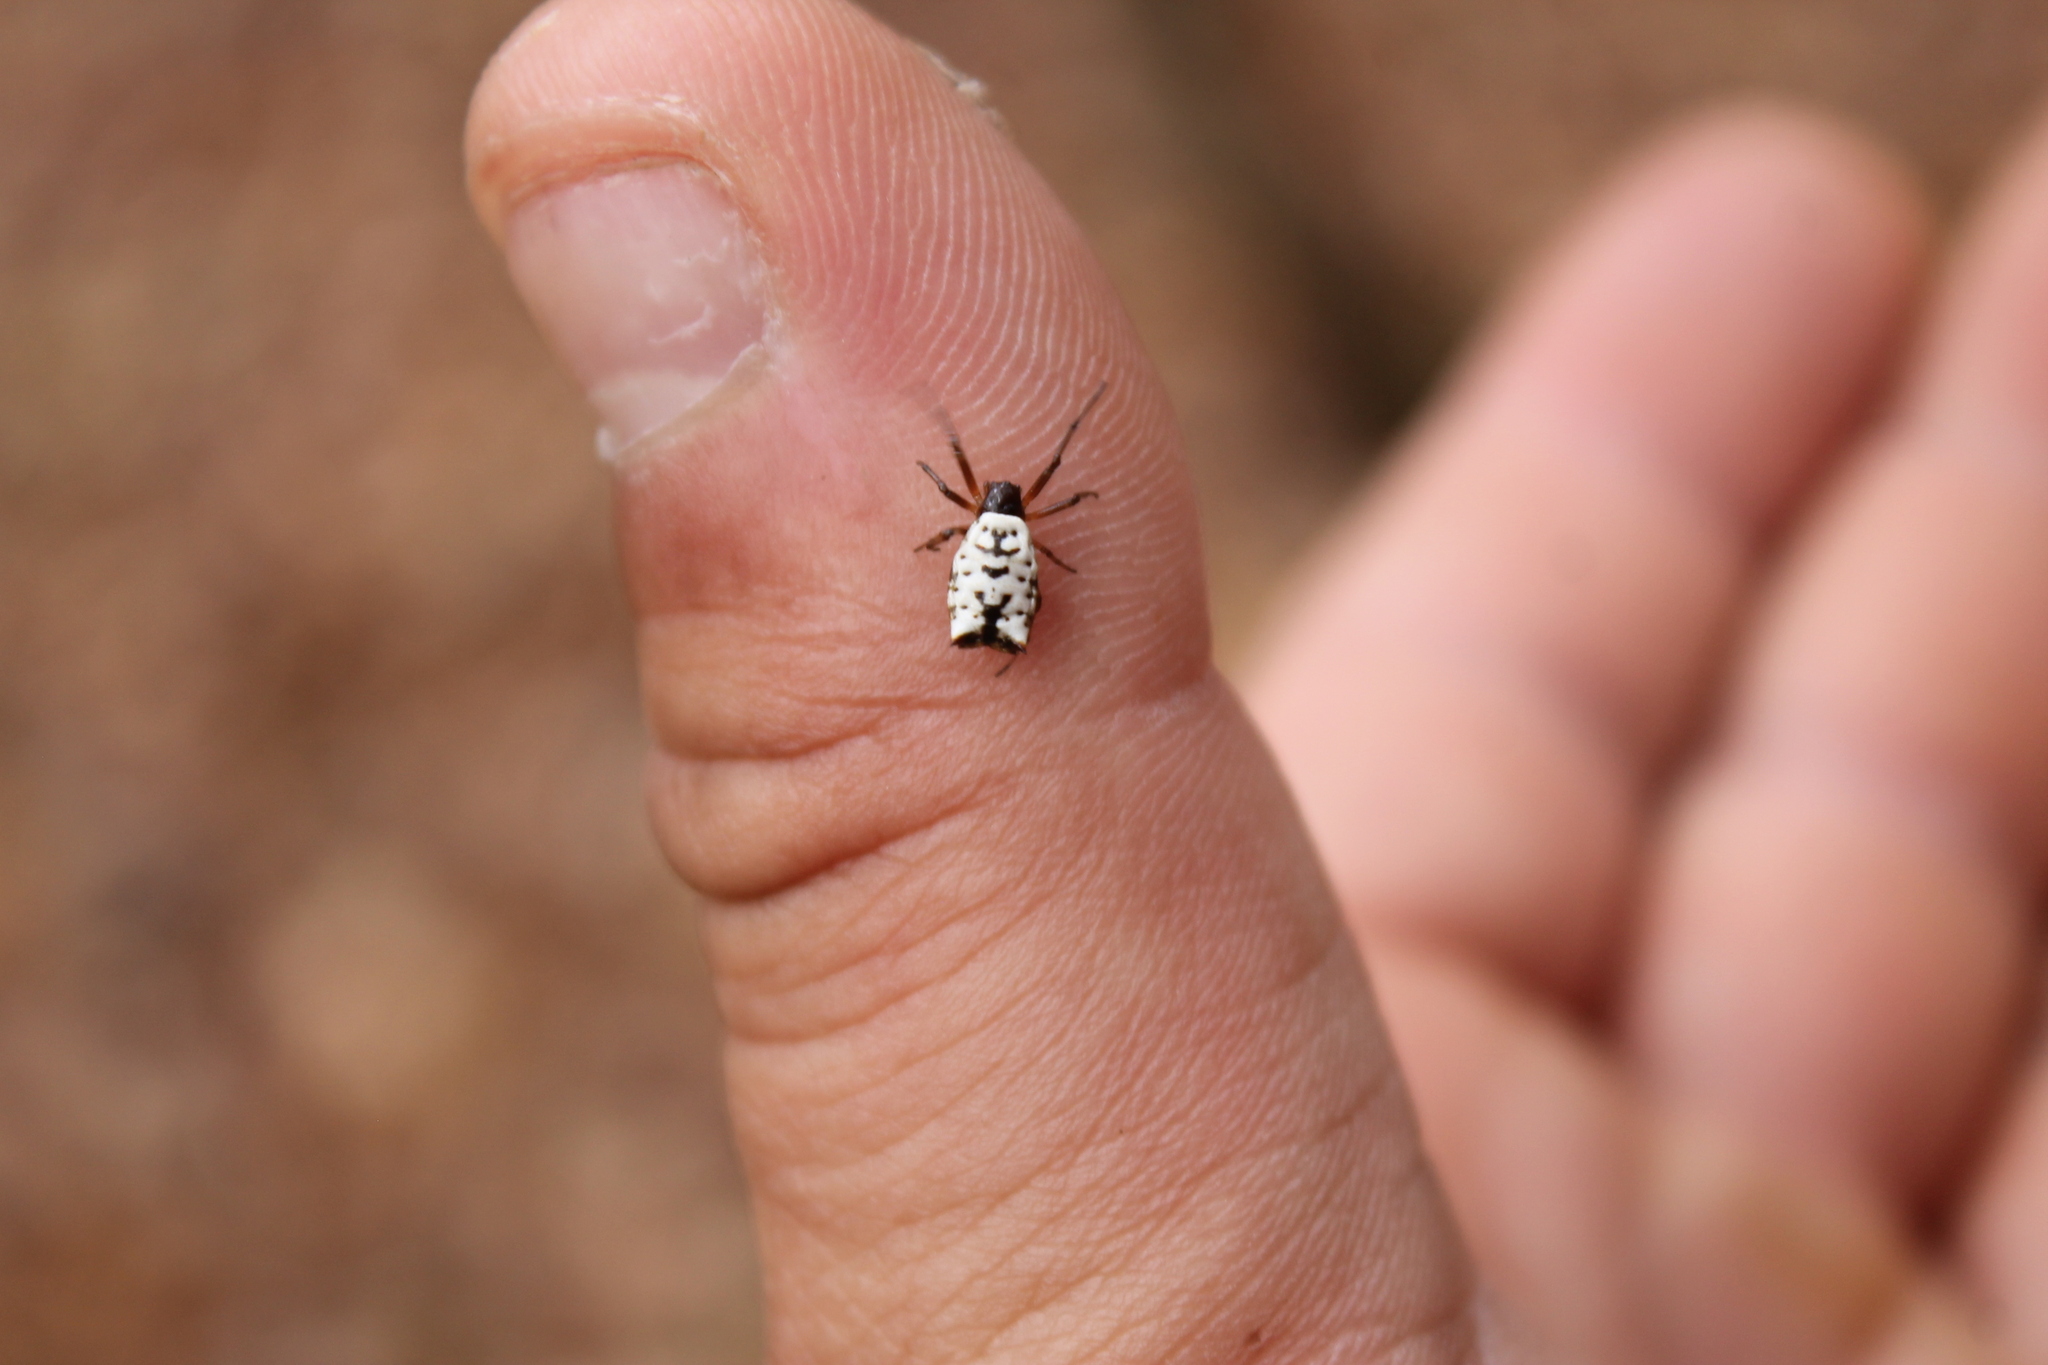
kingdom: Animalia
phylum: Arthropoda
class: Arachnida
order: Araneae
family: Araneidae
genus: Micrathena
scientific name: Micrathena mitrata
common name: Orb weavers
